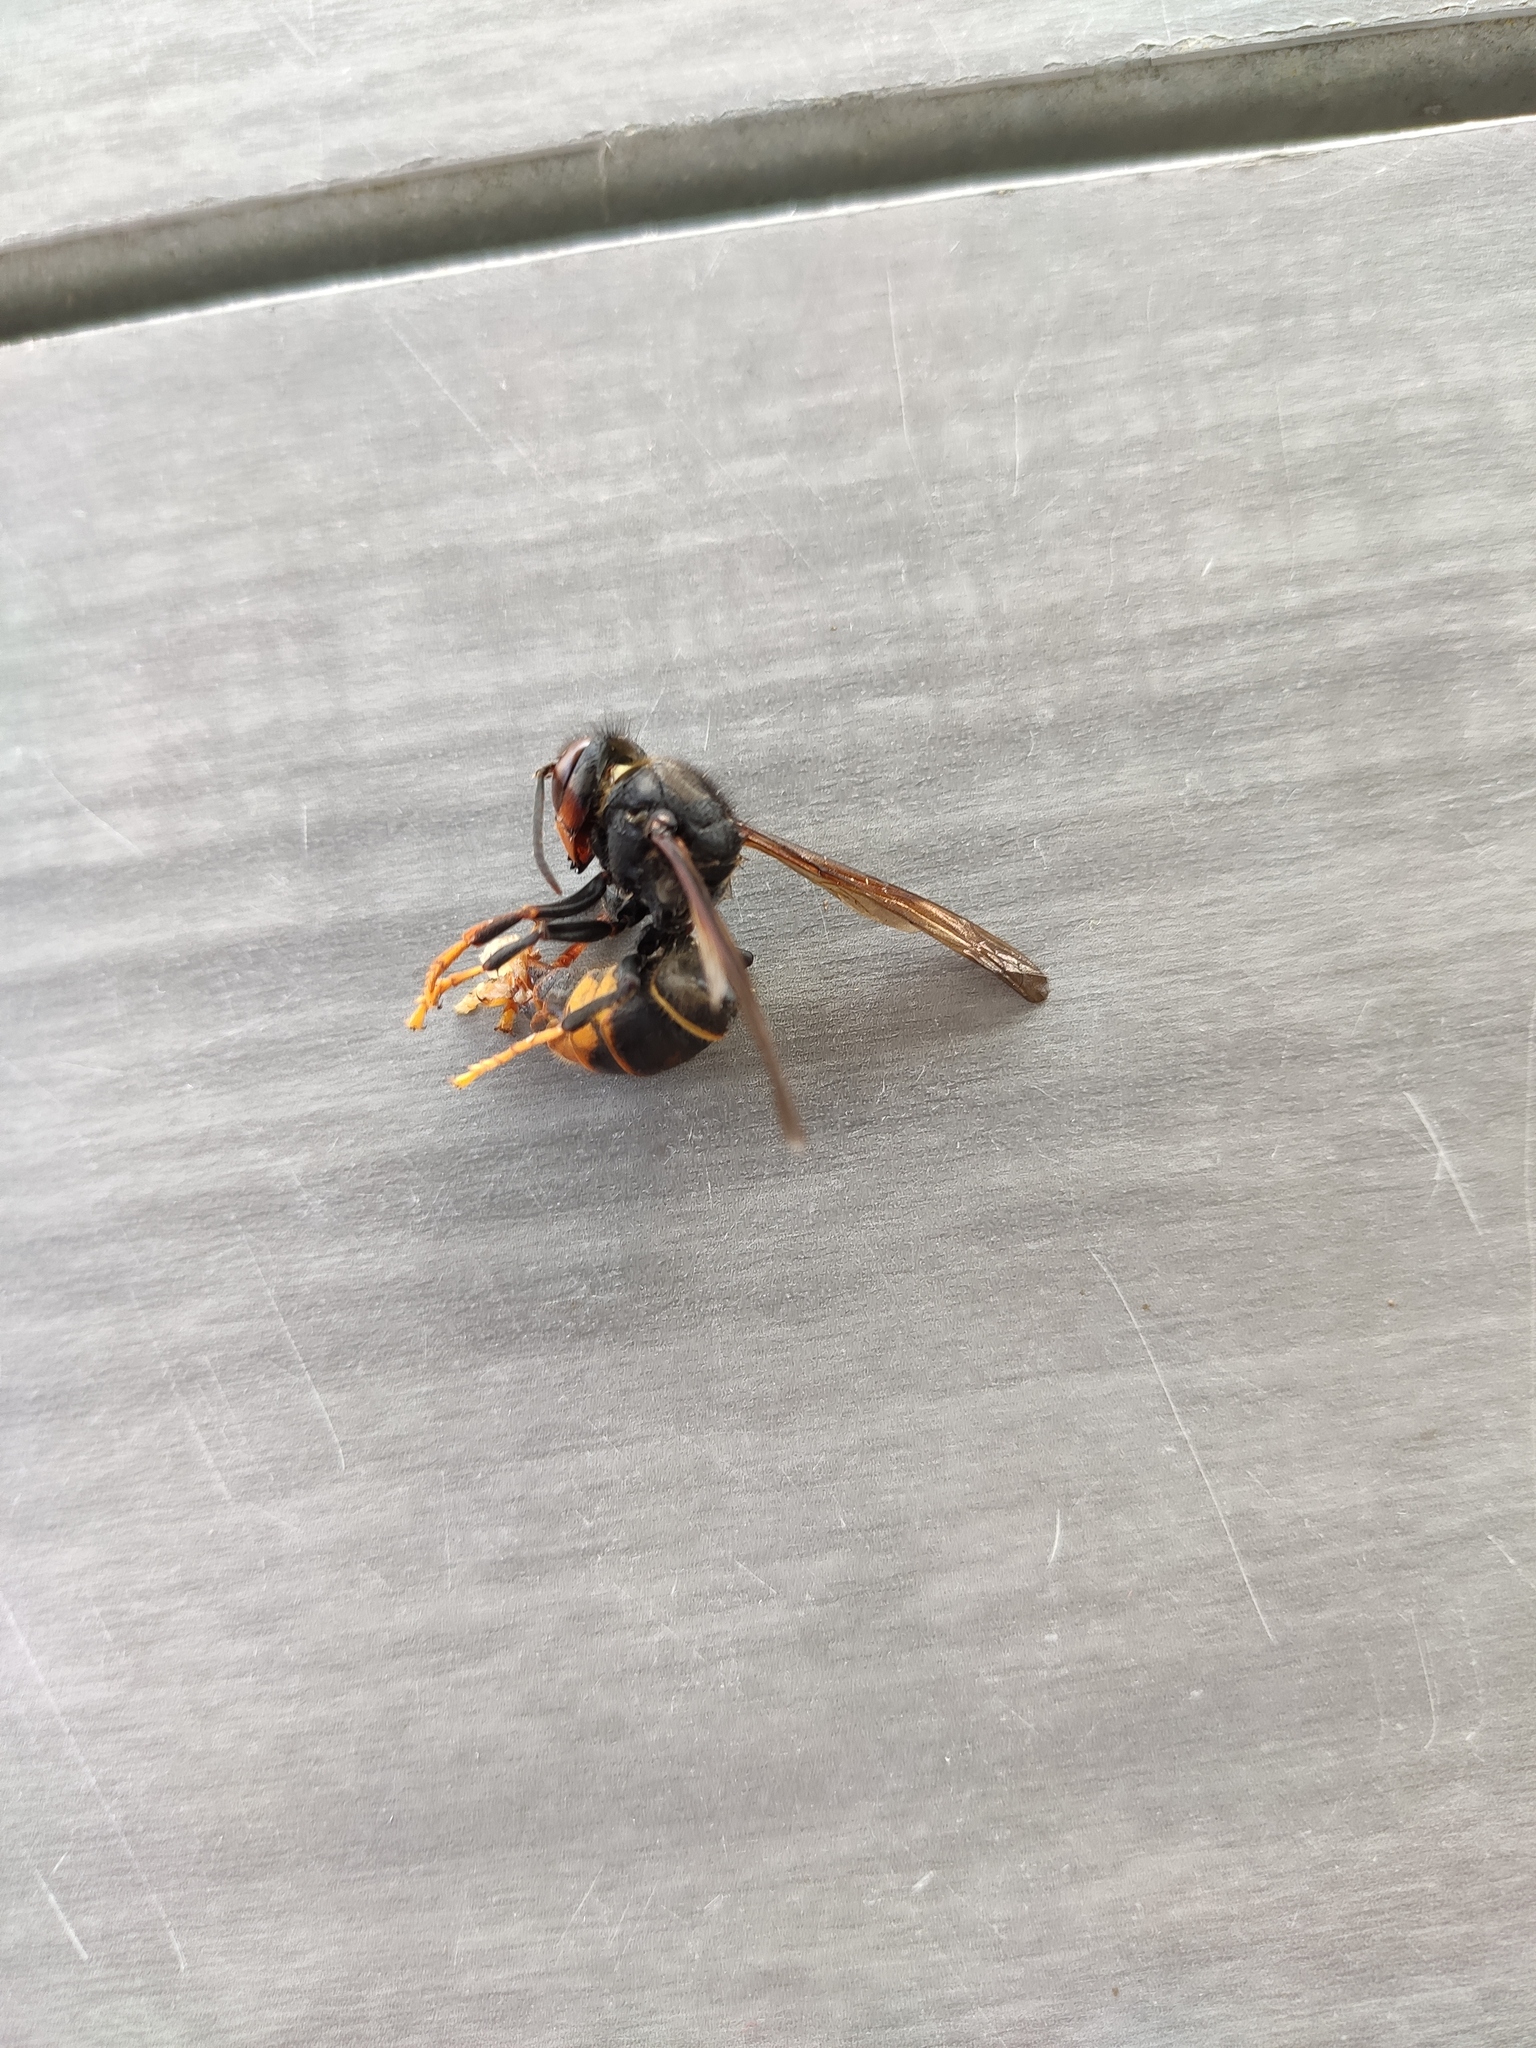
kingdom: Animalia
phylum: Arthropoda
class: Insecta
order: Hymenoptera
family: Vespidae
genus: Vespa
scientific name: Vespa velutina
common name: Asian hornet
